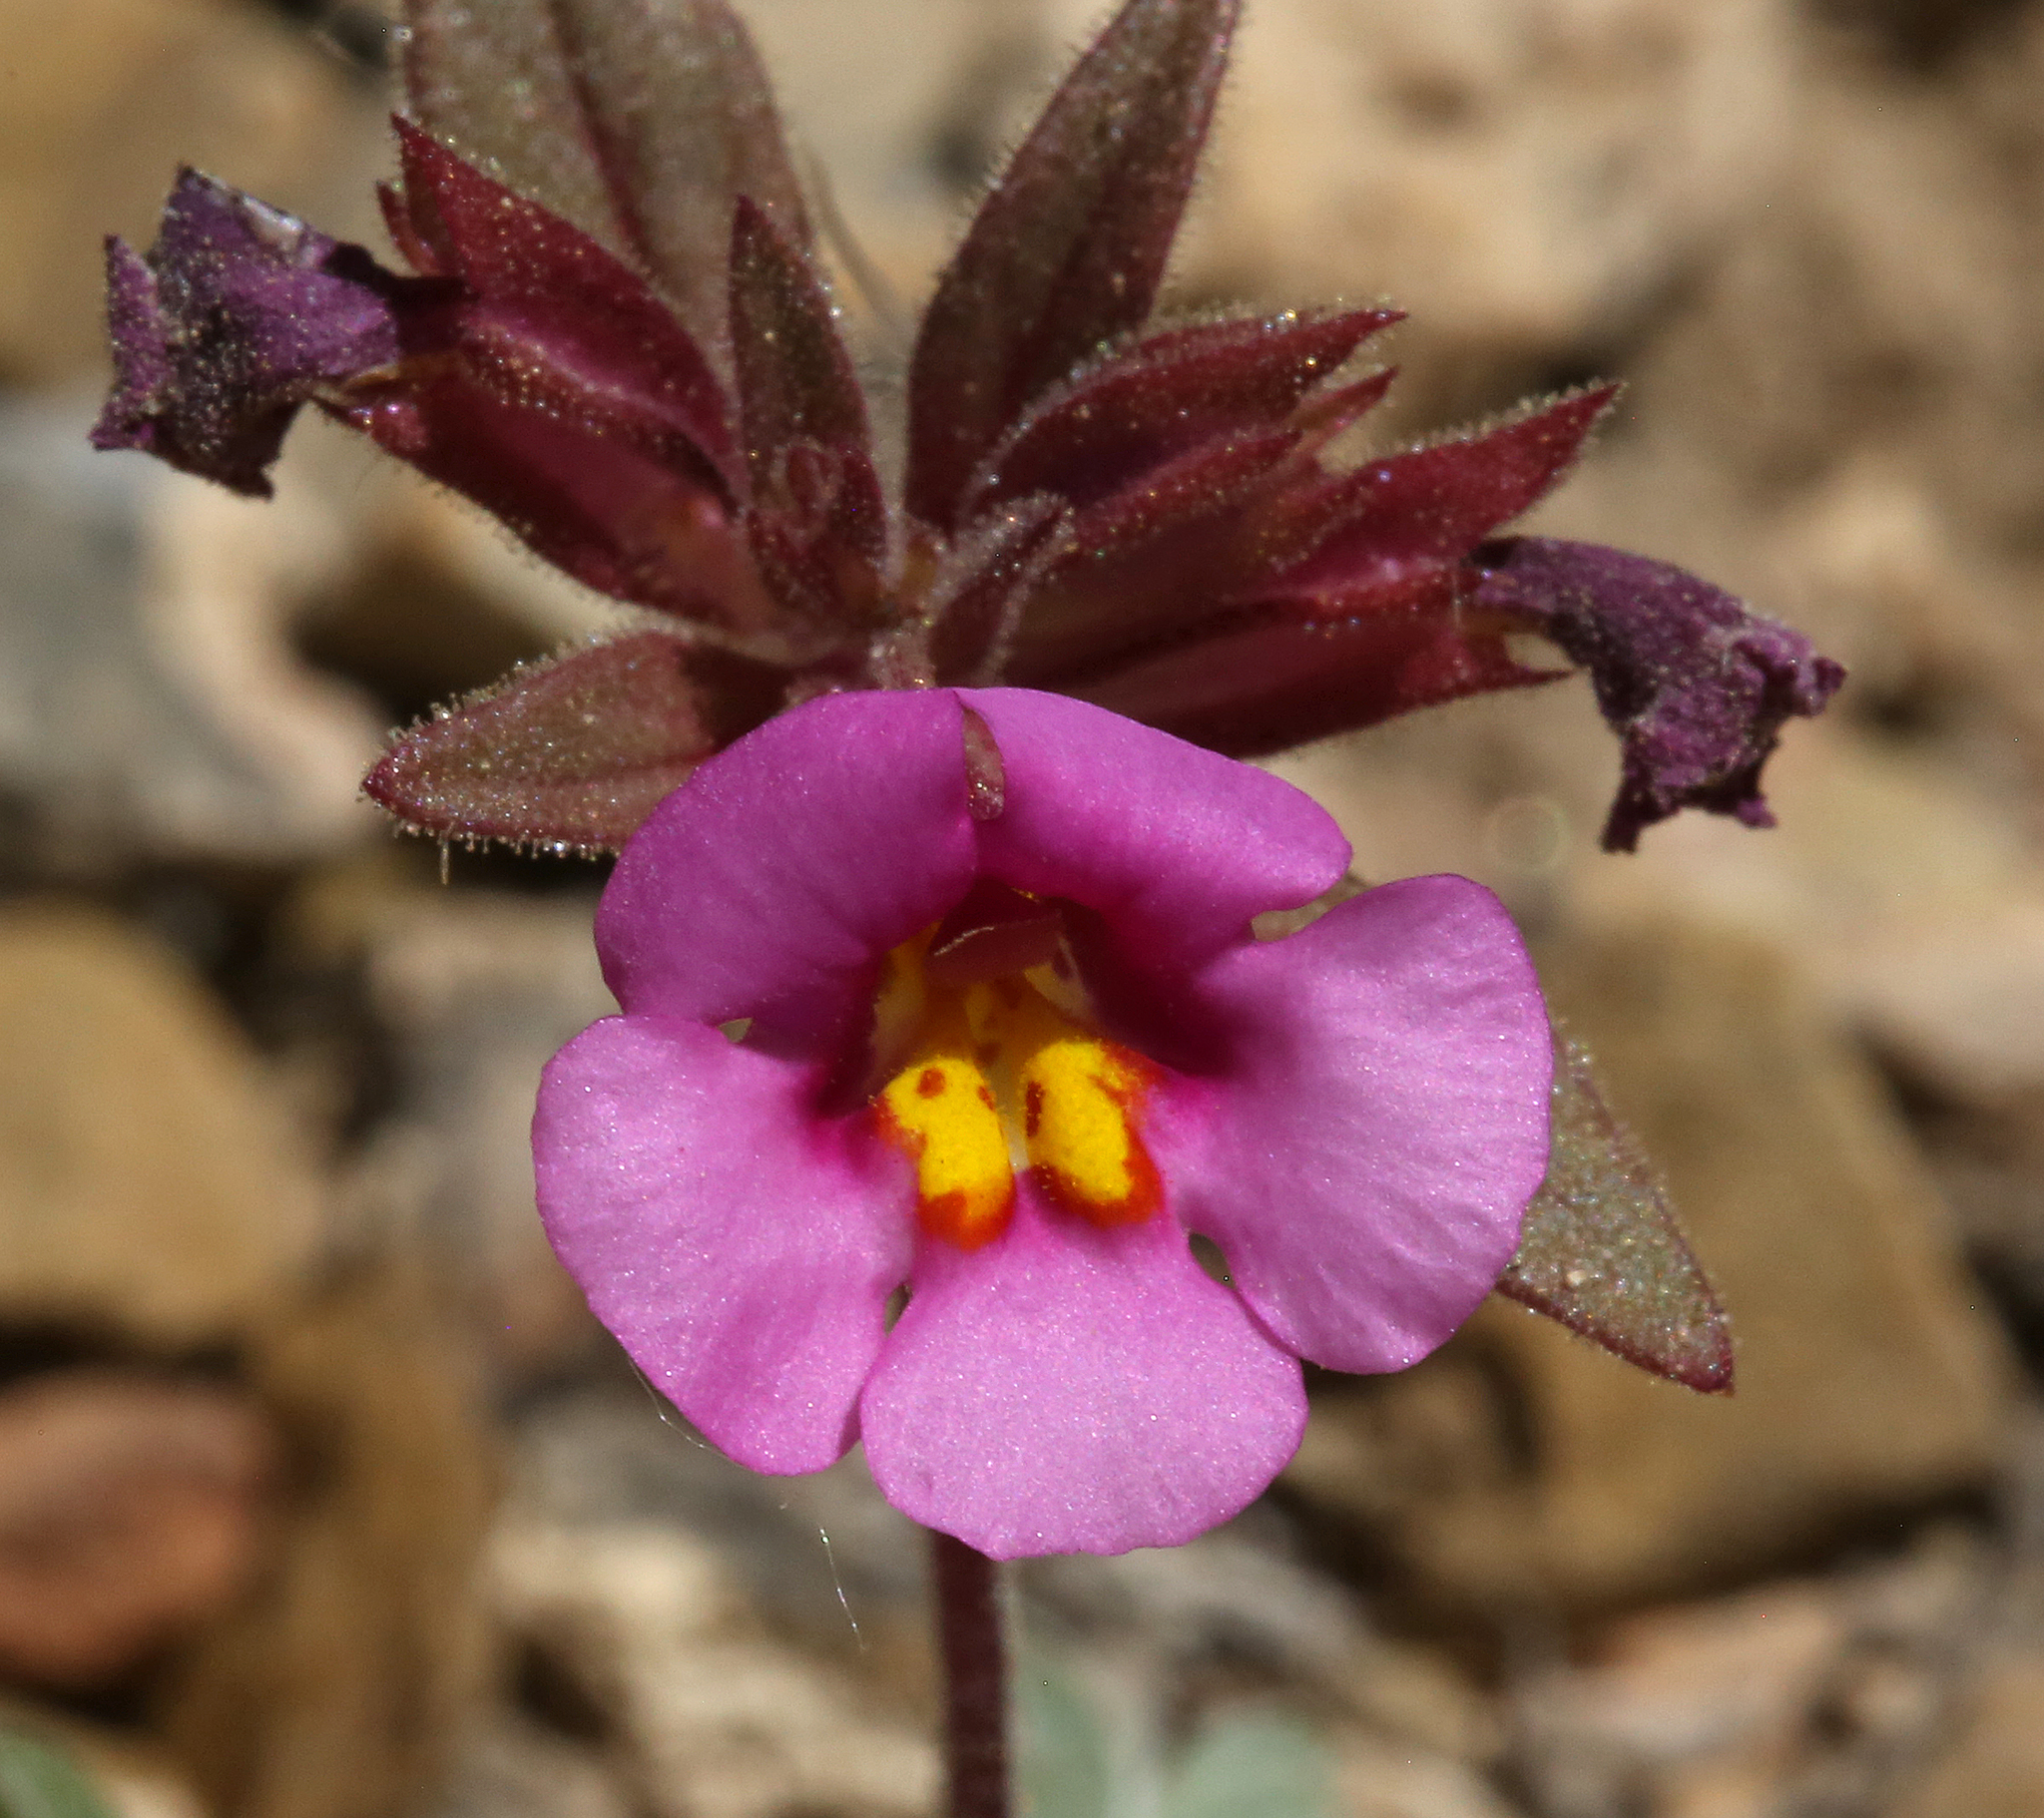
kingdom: Plantae
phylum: Tracheophyta
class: Magnoliopsida
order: Lamiales
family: Phrymaceae
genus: Diplacus
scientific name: Diplacus parryi
